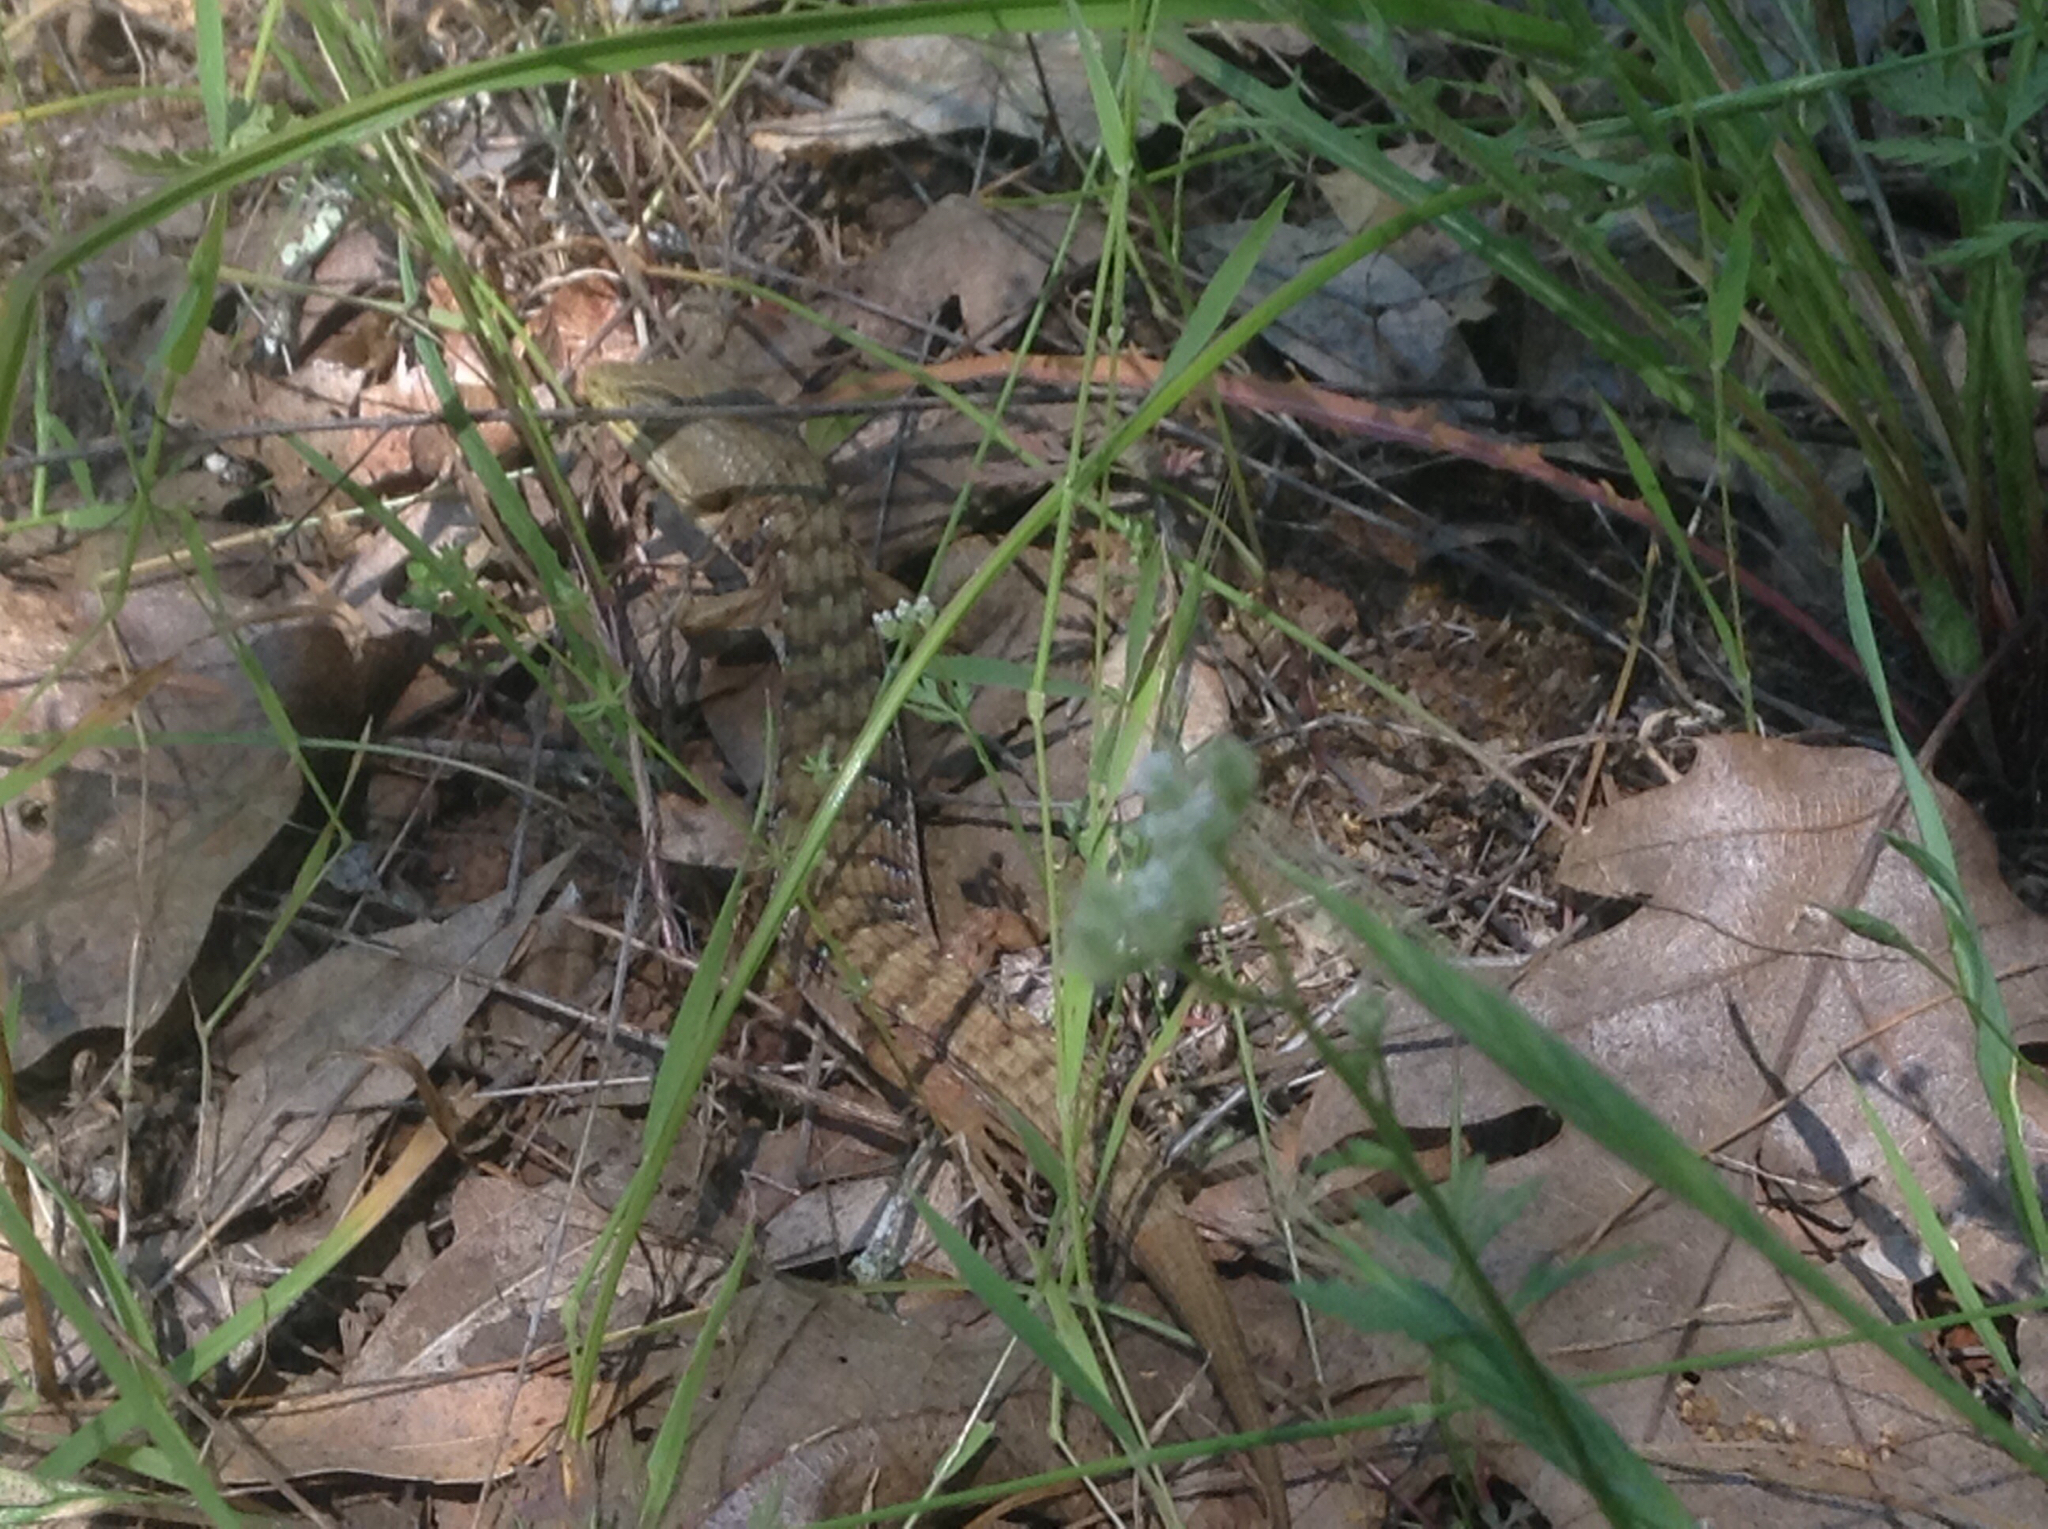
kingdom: Animalia
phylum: Chordata
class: Squamata
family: Anguidae
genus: Elgaria
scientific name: Elgaria multicarinata
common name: Southern alligator lizard
